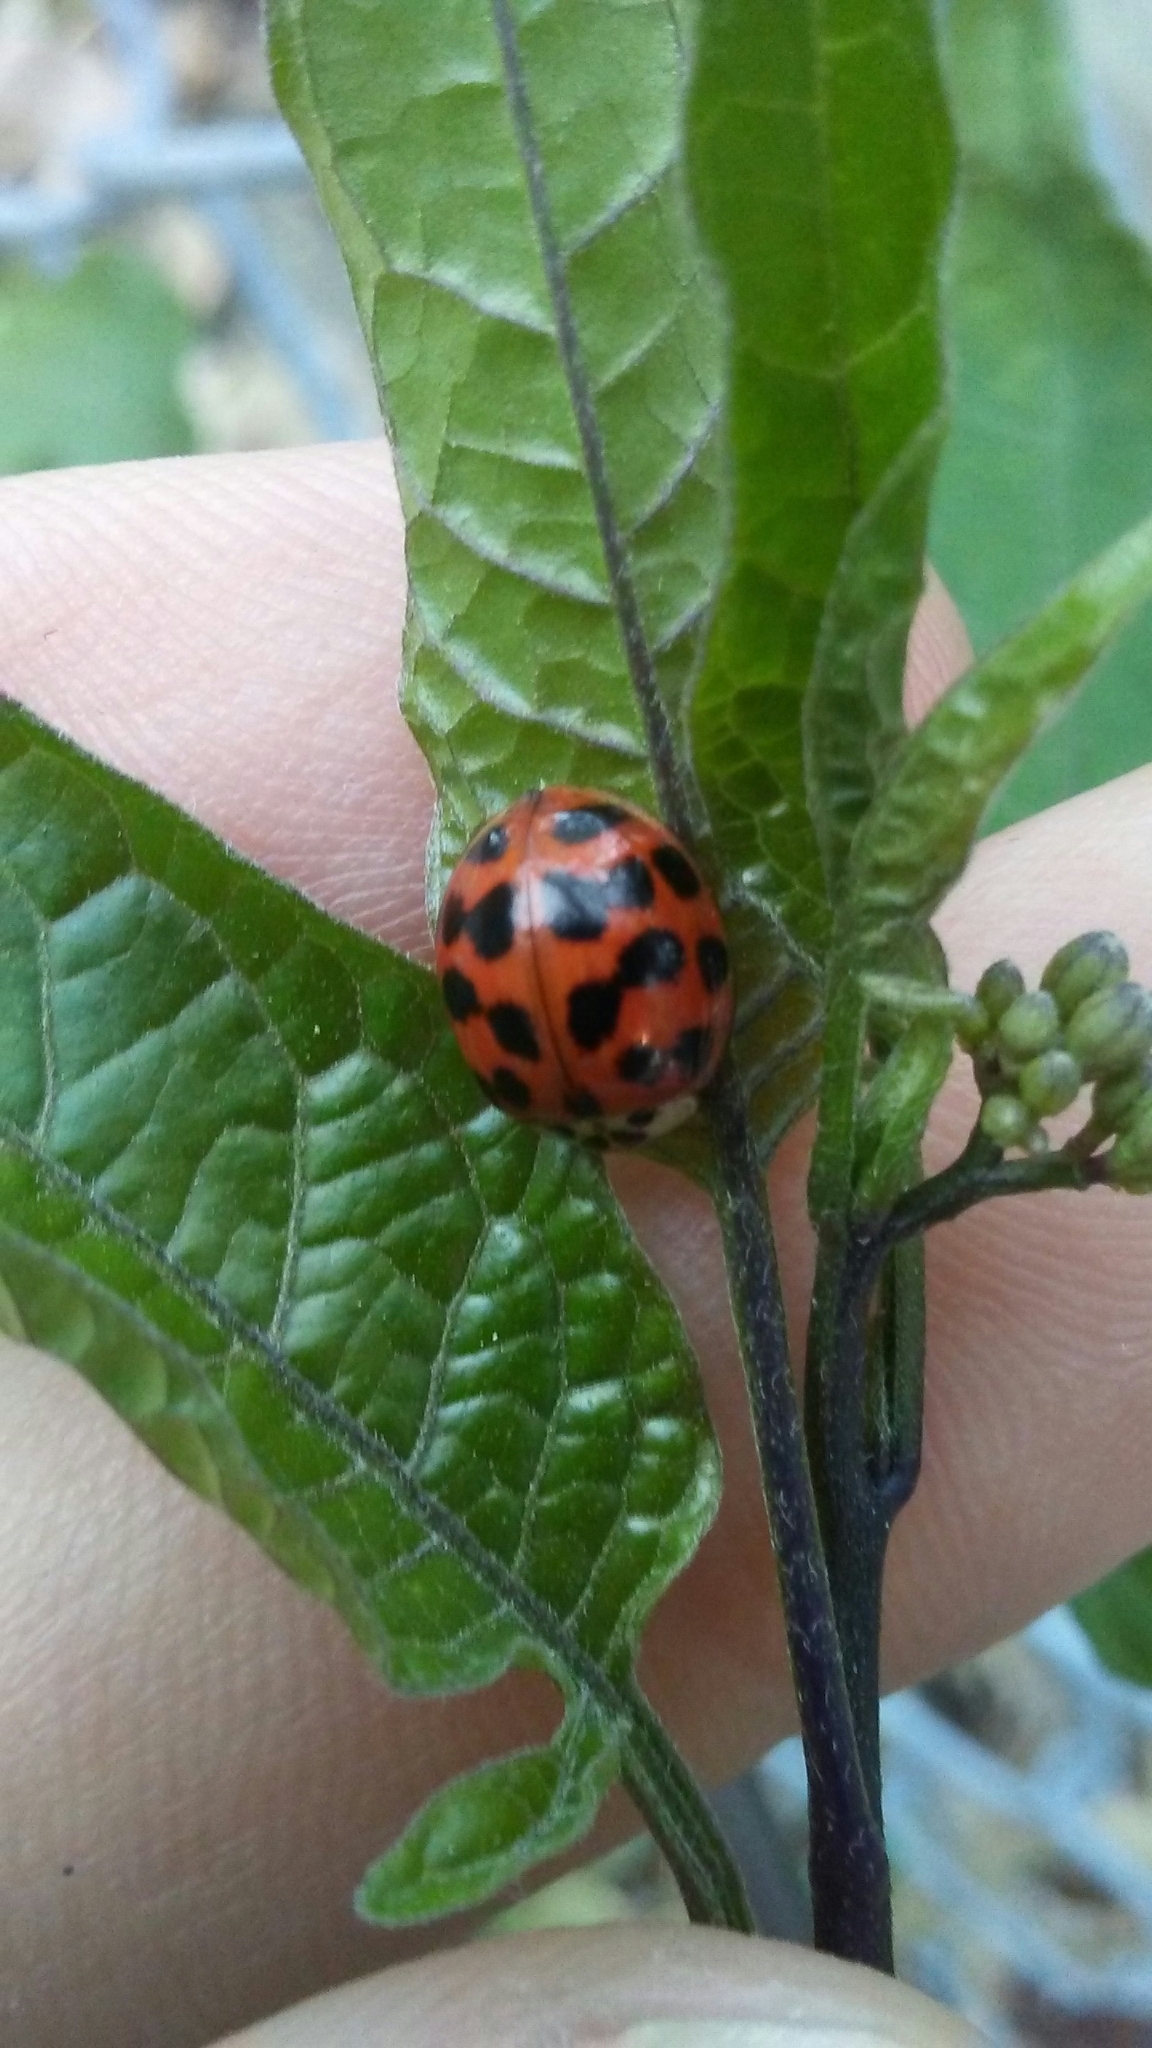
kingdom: Animalia
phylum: Arthropoda
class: Insecta
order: Coleoptera
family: Coccinellidae
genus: Harmonia
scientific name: Harmonia axyridis
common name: Harlequin ladybird
